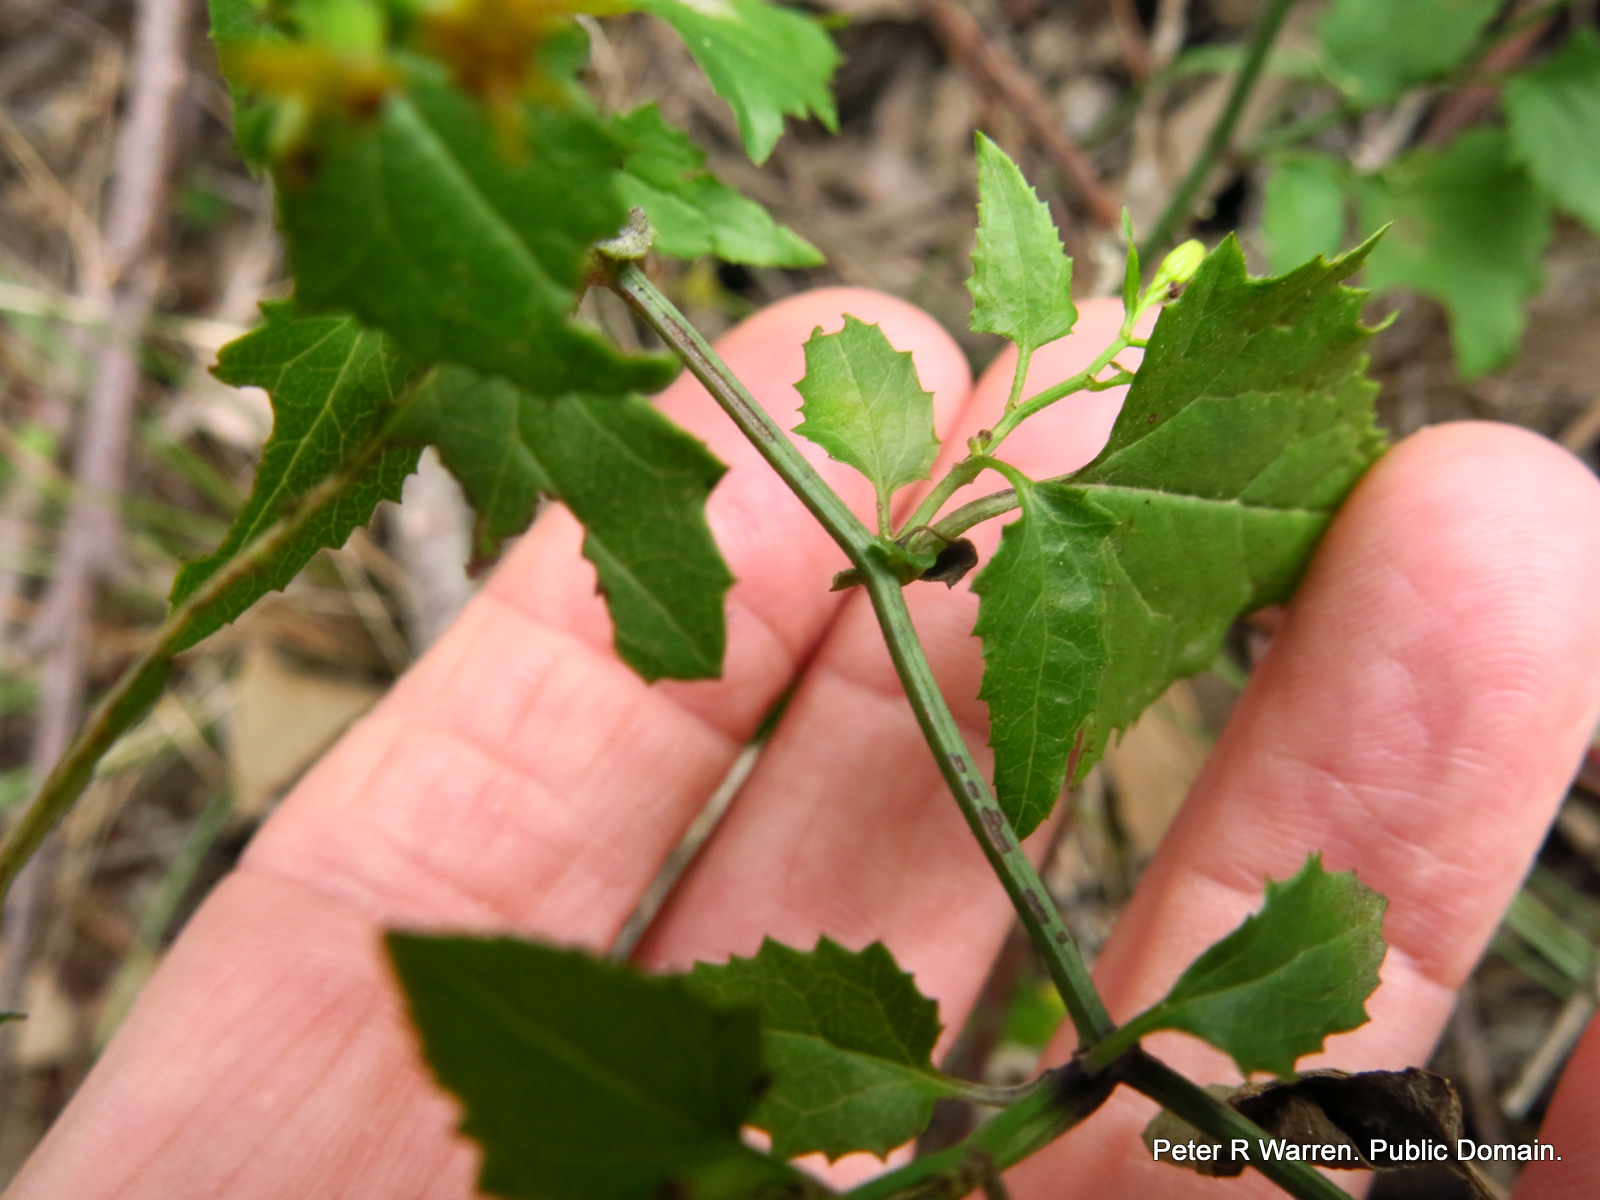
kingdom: Plantae
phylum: Tracheophyta
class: Magnoliopsida
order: Asterales
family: Asteraceae
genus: Senecio
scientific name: Senecio deltoideus
